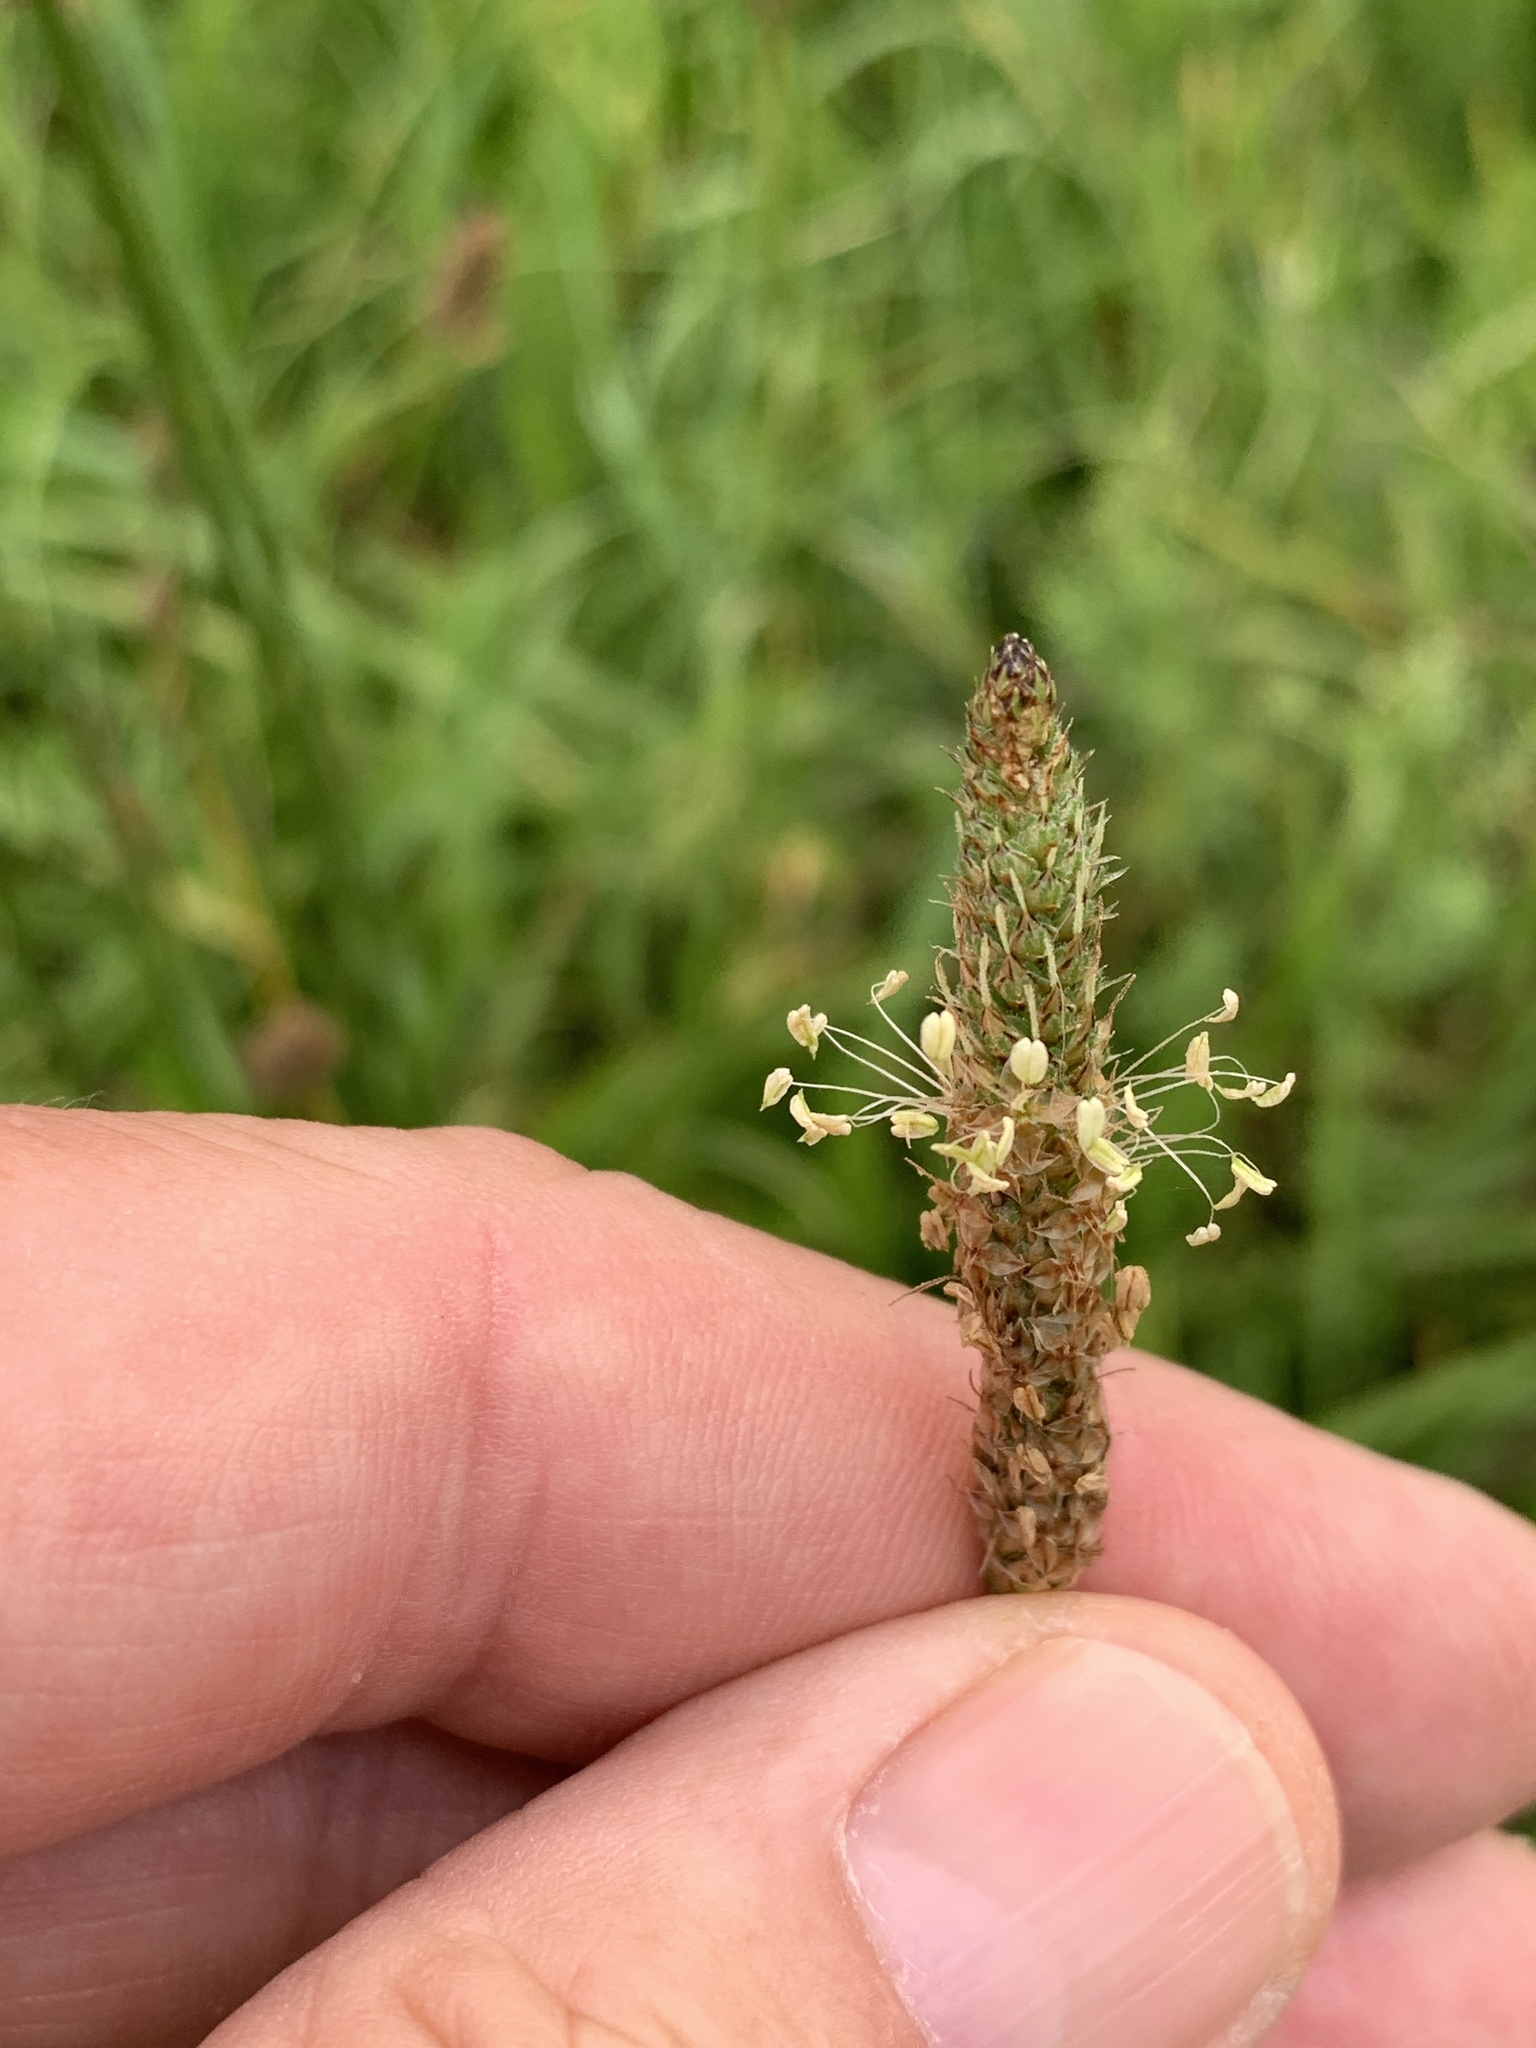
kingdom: Plantae
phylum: Tracheophyta
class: Magnoliopsida
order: Lamiales
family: Plantaginaceae
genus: Plantago
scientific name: Plantago lanceolata
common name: Ribwort plantain
